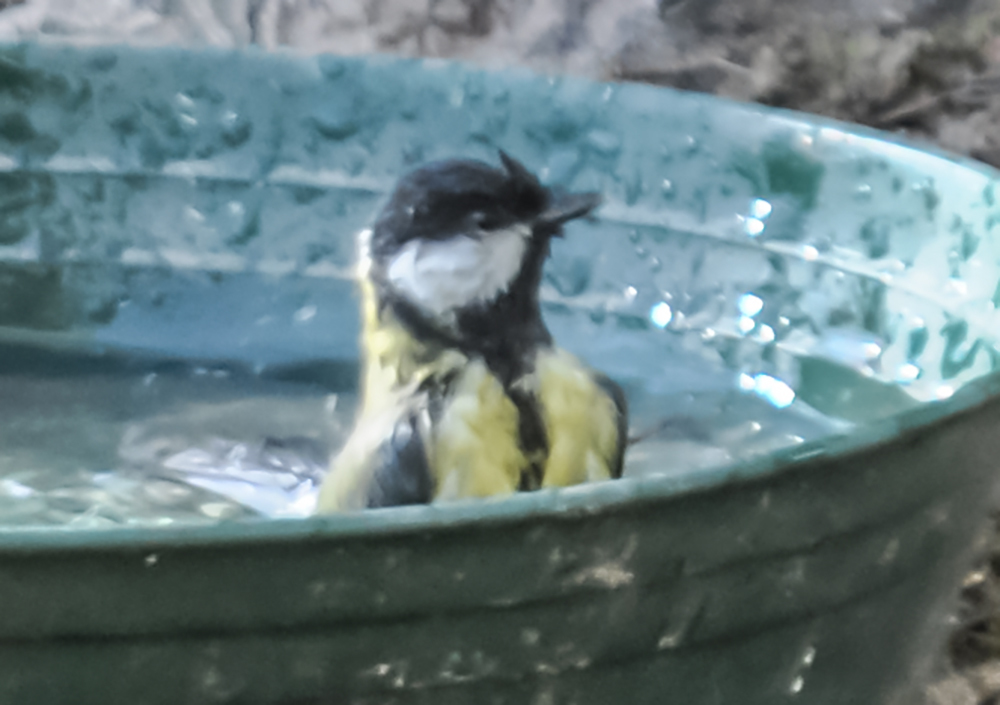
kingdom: Animalia
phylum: Chordata
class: Aves
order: Passeriformes
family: Paridae
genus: Parus
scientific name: Parus major
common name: Great tit
